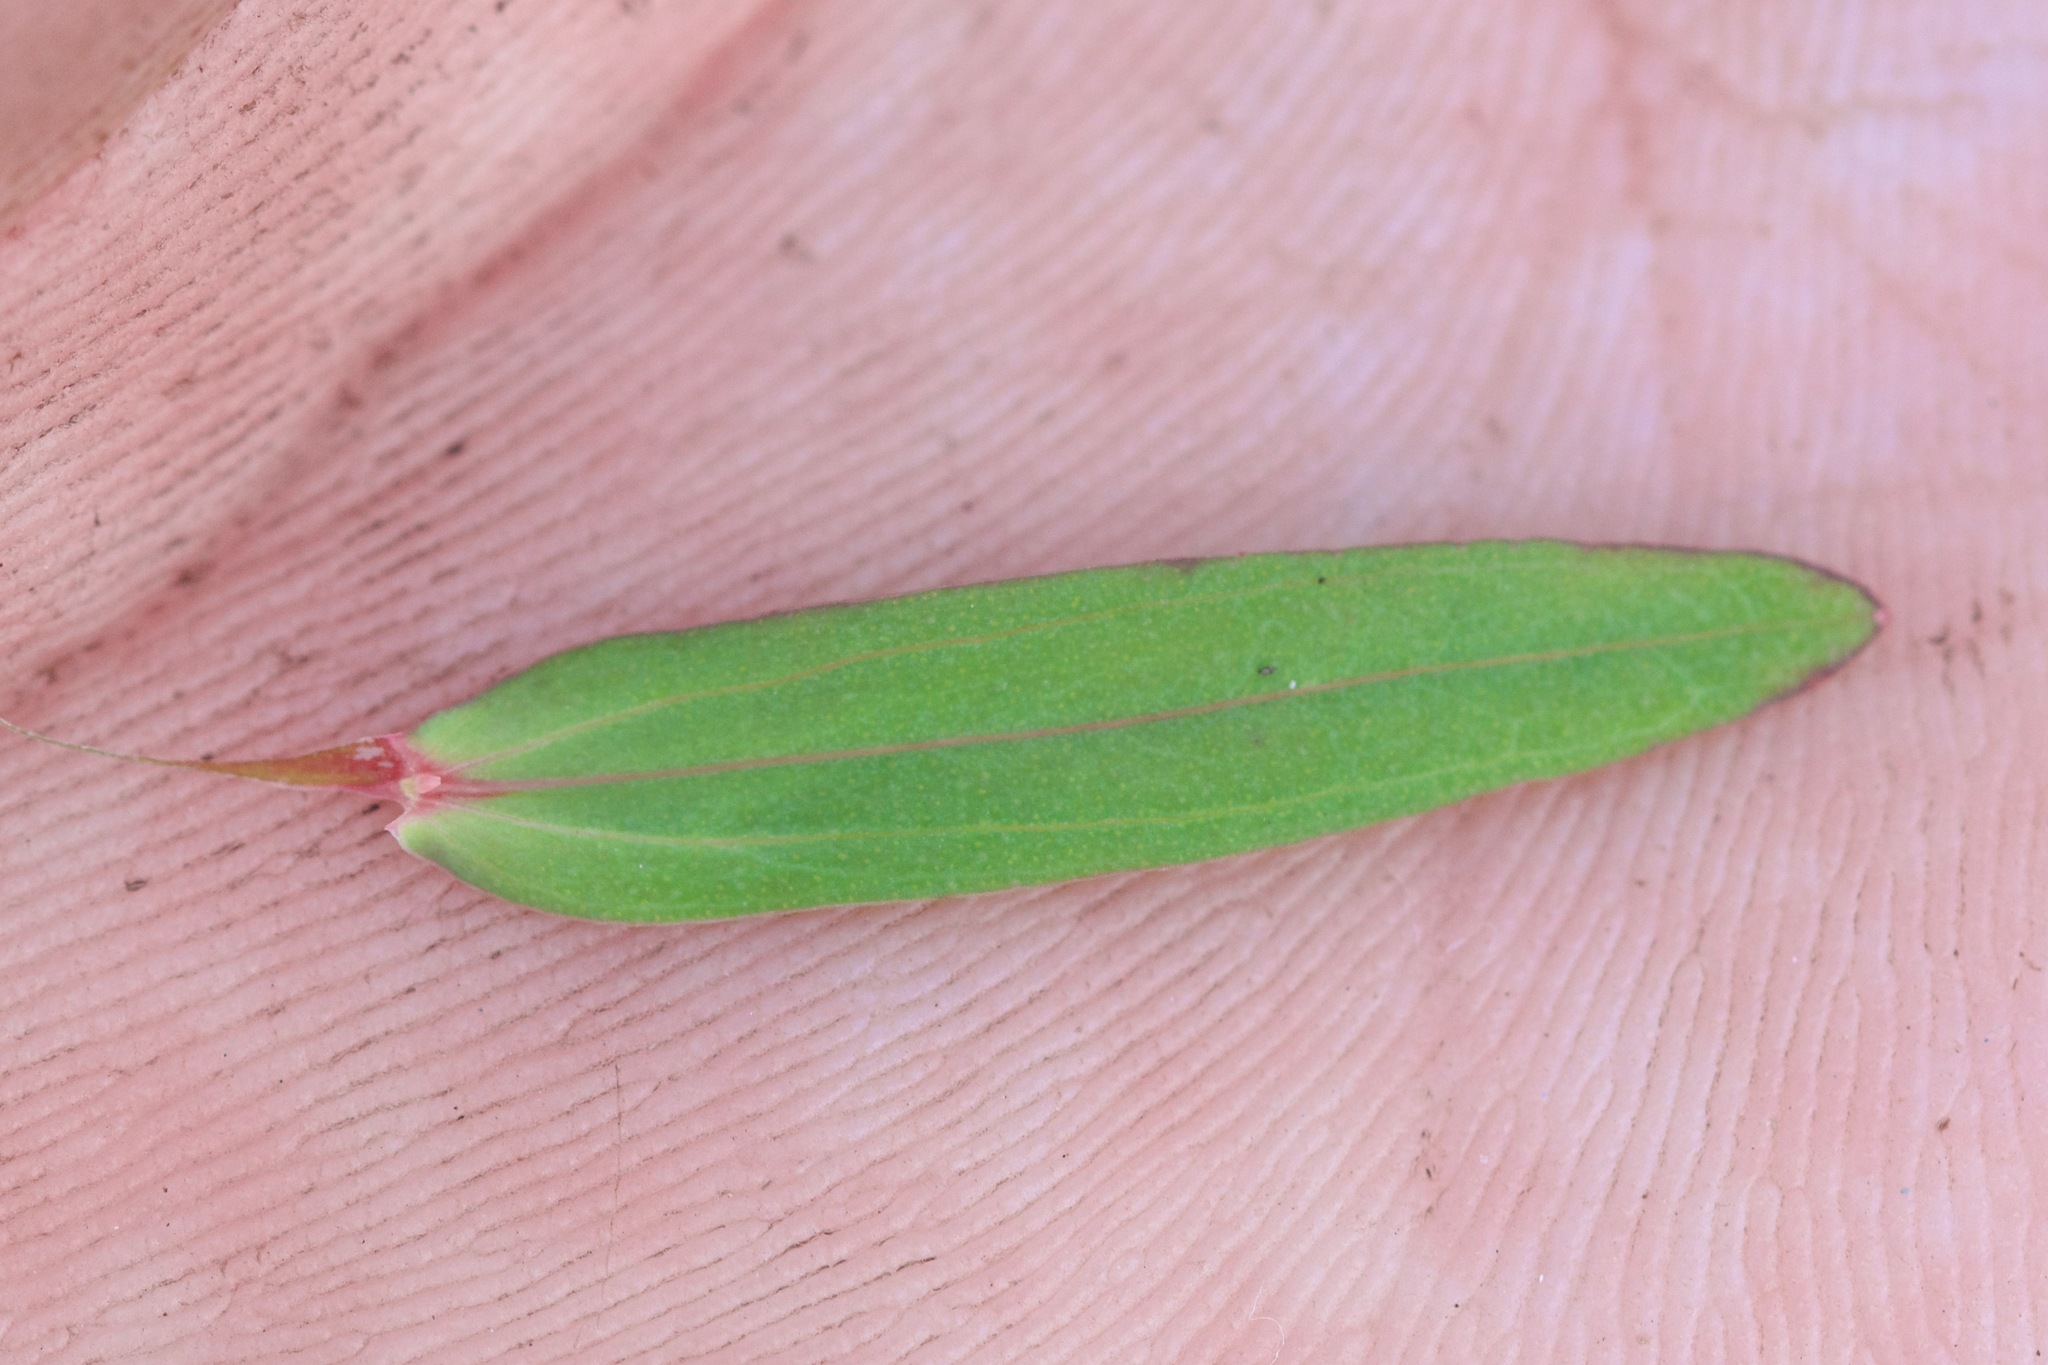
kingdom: Plantae
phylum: Tracheophyta
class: Magnoliopsida
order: Malpighiales
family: Hypericaceae
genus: Hypericum
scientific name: Hypericum canadense
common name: Irish st. john's-wort
